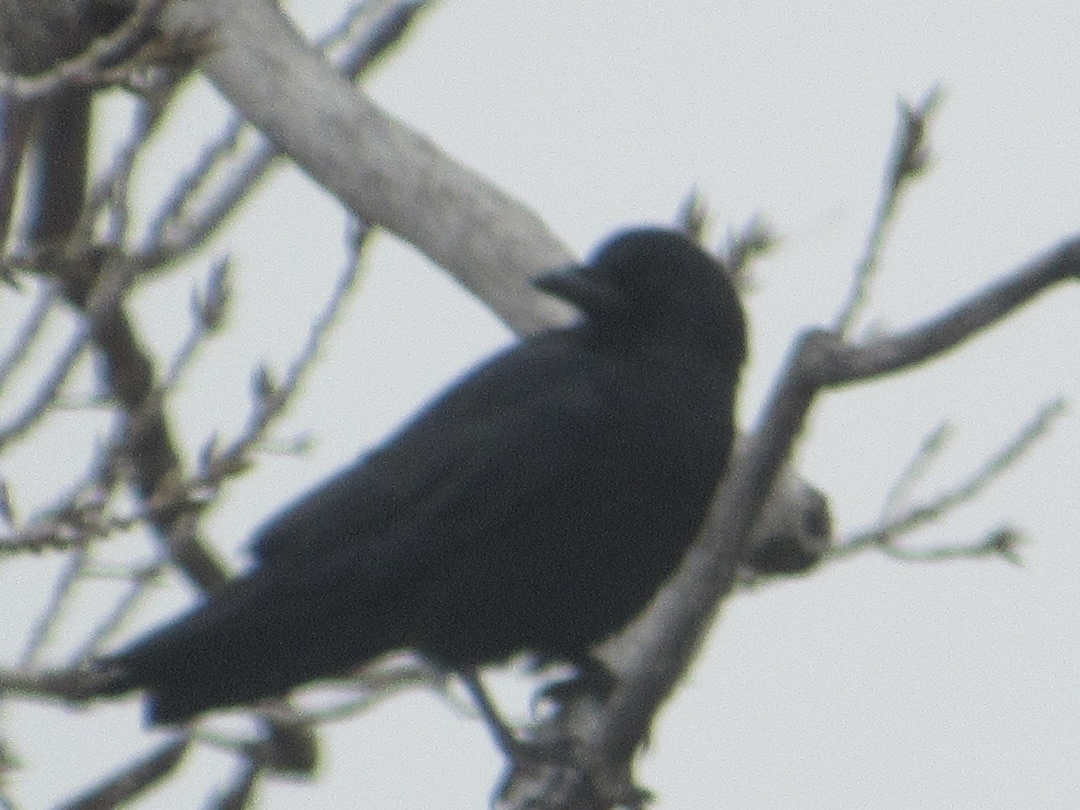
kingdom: Animalia
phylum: Chordata
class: Aves
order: Passeriformes
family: Corvidae
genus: Corvus
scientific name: Corvus brachyrhynchos
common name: American crow
